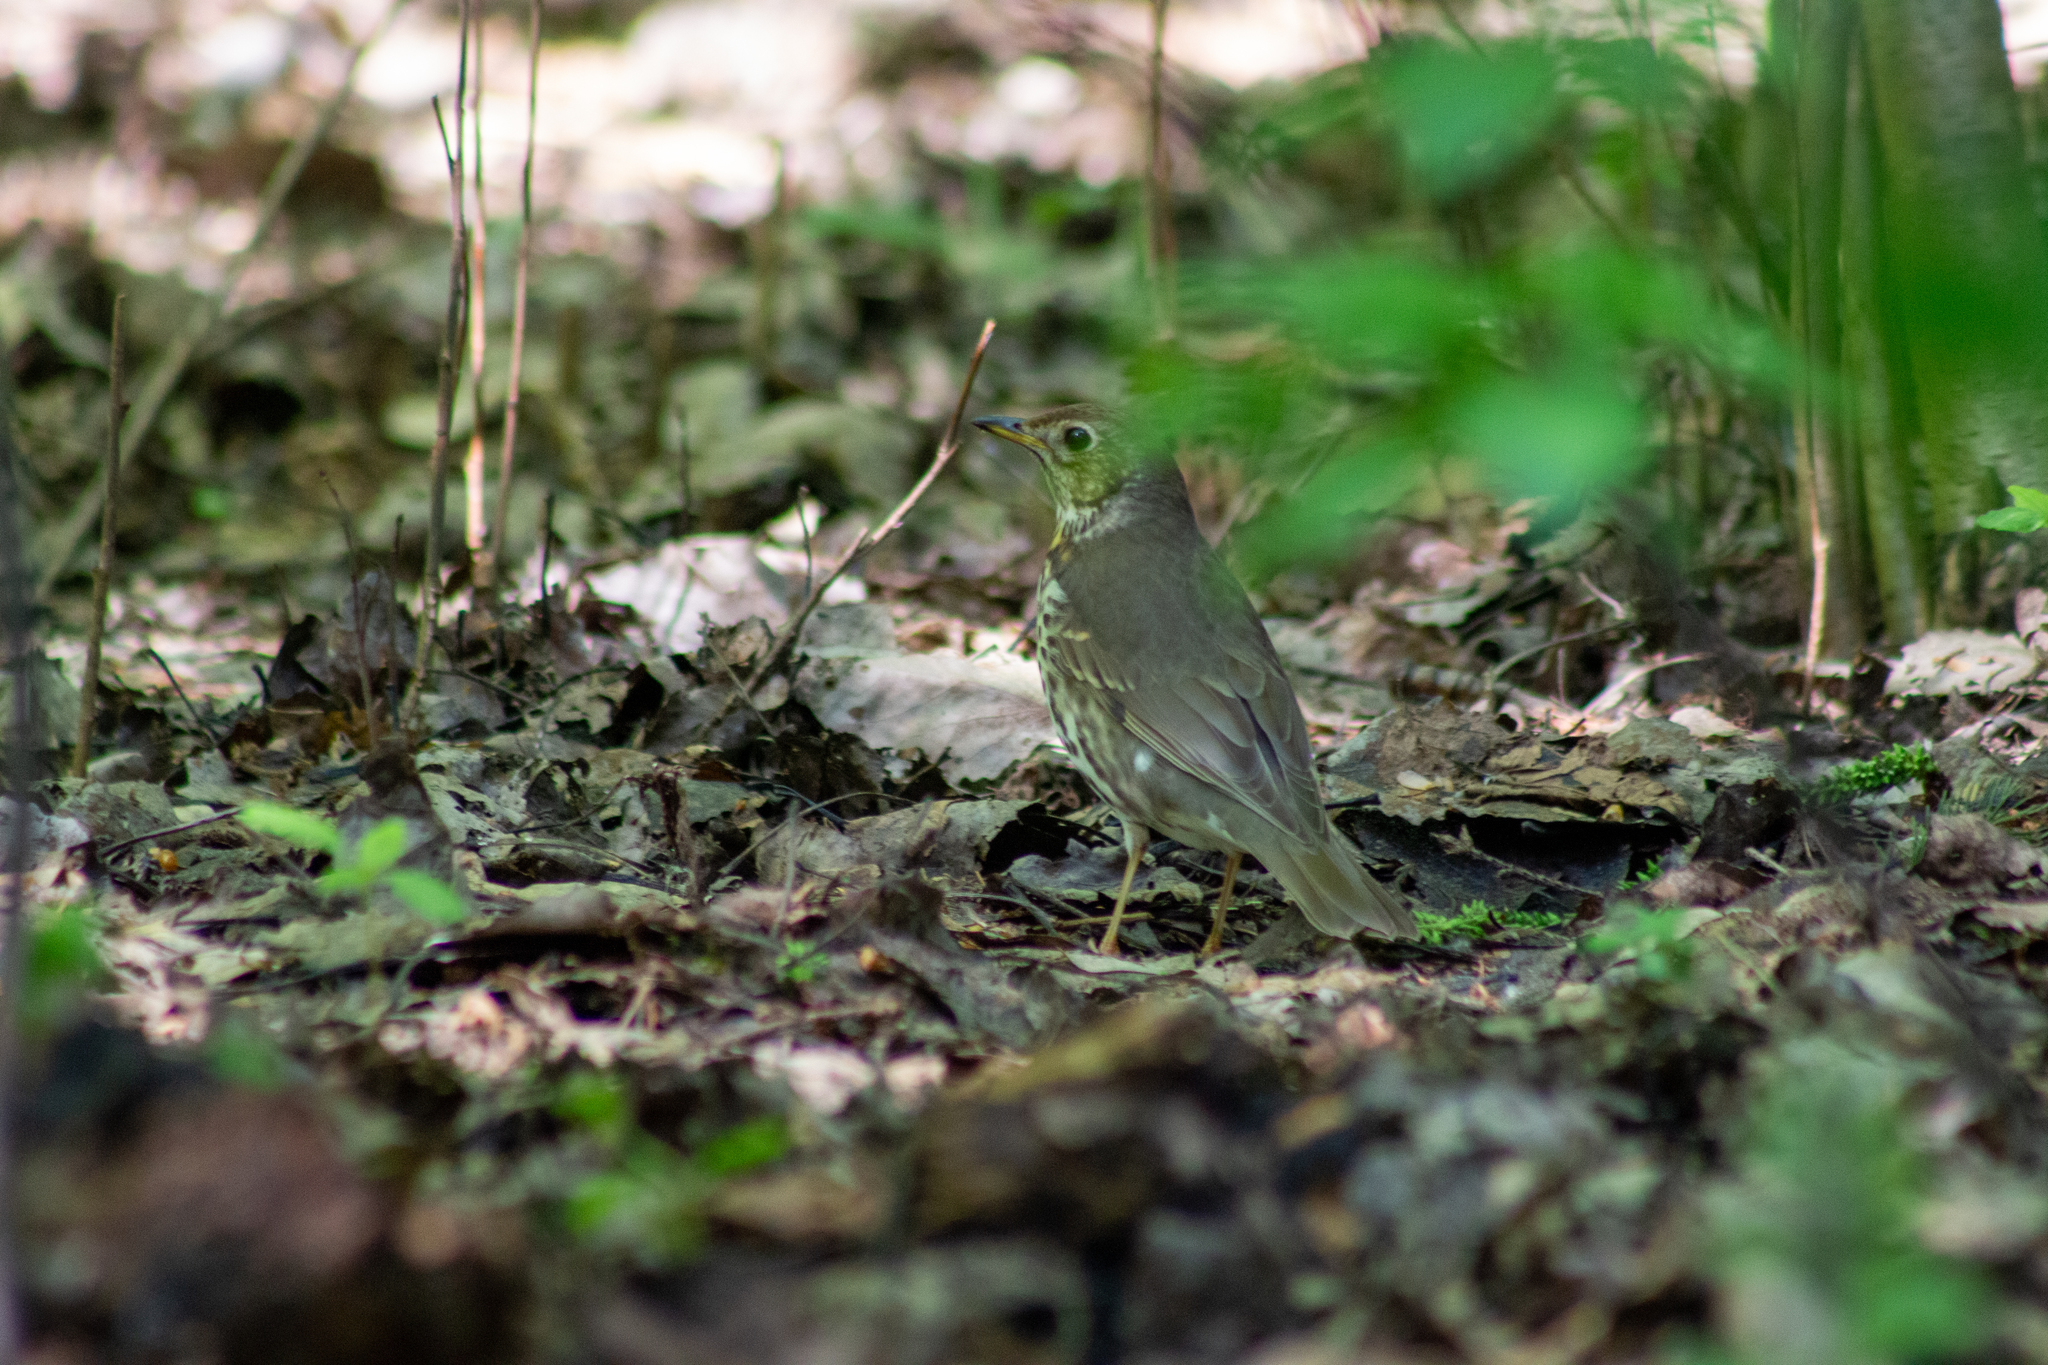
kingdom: Animalia
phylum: Chordata
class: Aves
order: Passeriformes
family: Turdidae
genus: Turdus
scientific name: Turdus philomelos
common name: Song thrush
